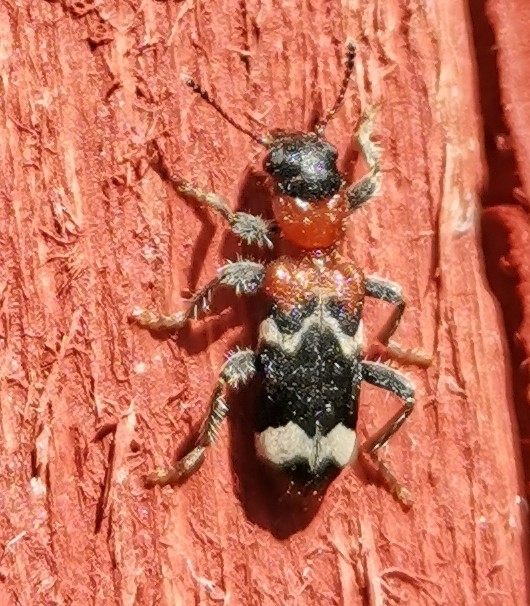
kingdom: Animalia
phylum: Arthropoda
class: Insecta
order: Coleoptera
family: Cleridae
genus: Thanasimus
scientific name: Thanasimus formicarius
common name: Ant beetle
